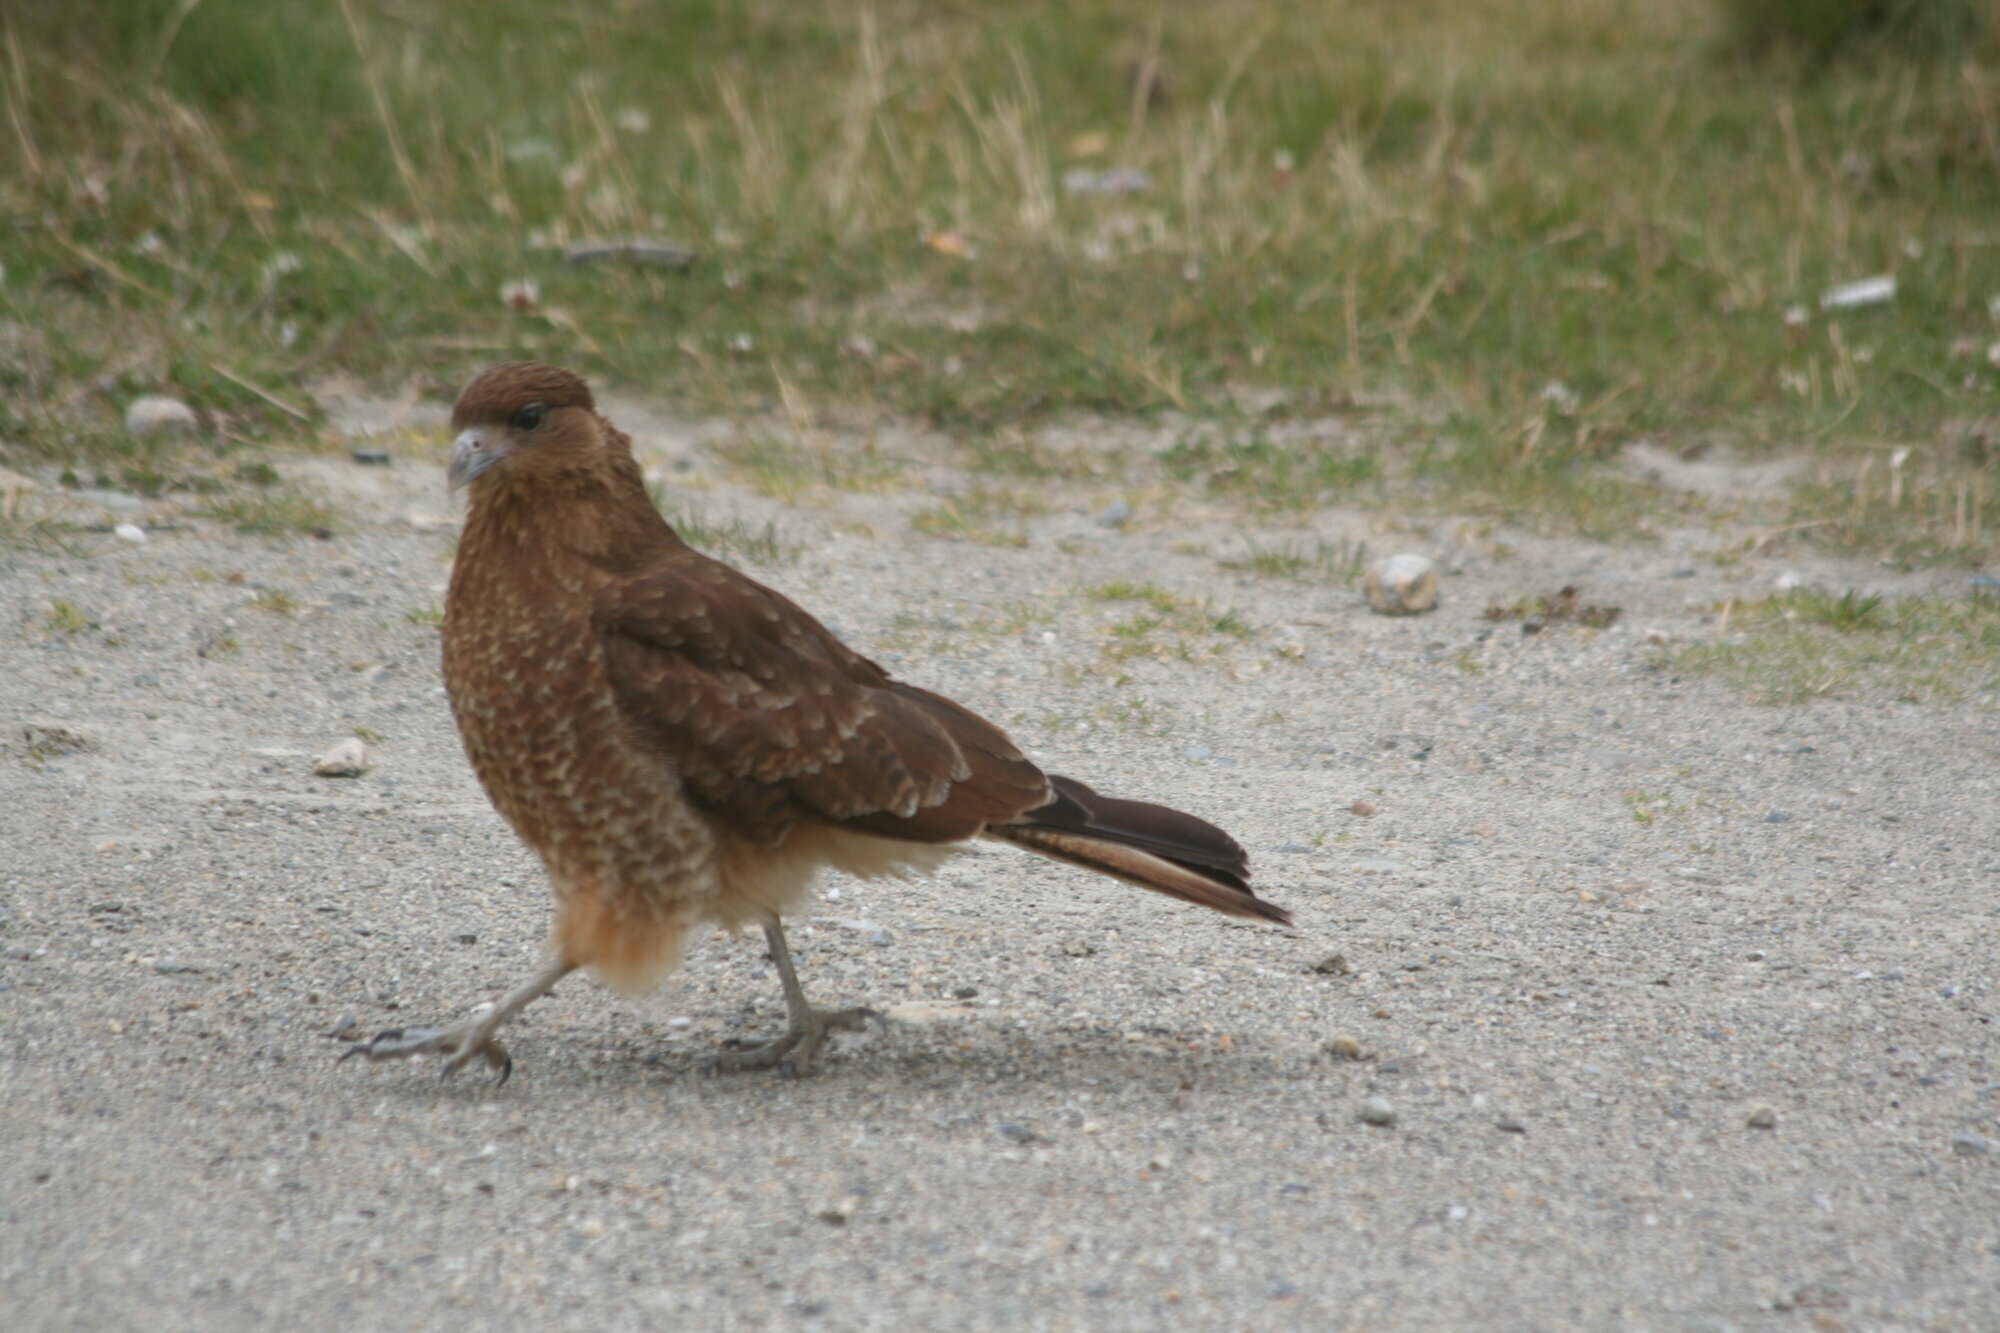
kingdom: Animalia
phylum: Chordata
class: Aves
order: Falconiformes
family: Falconidae
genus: Daptrius
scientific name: Daptrius
